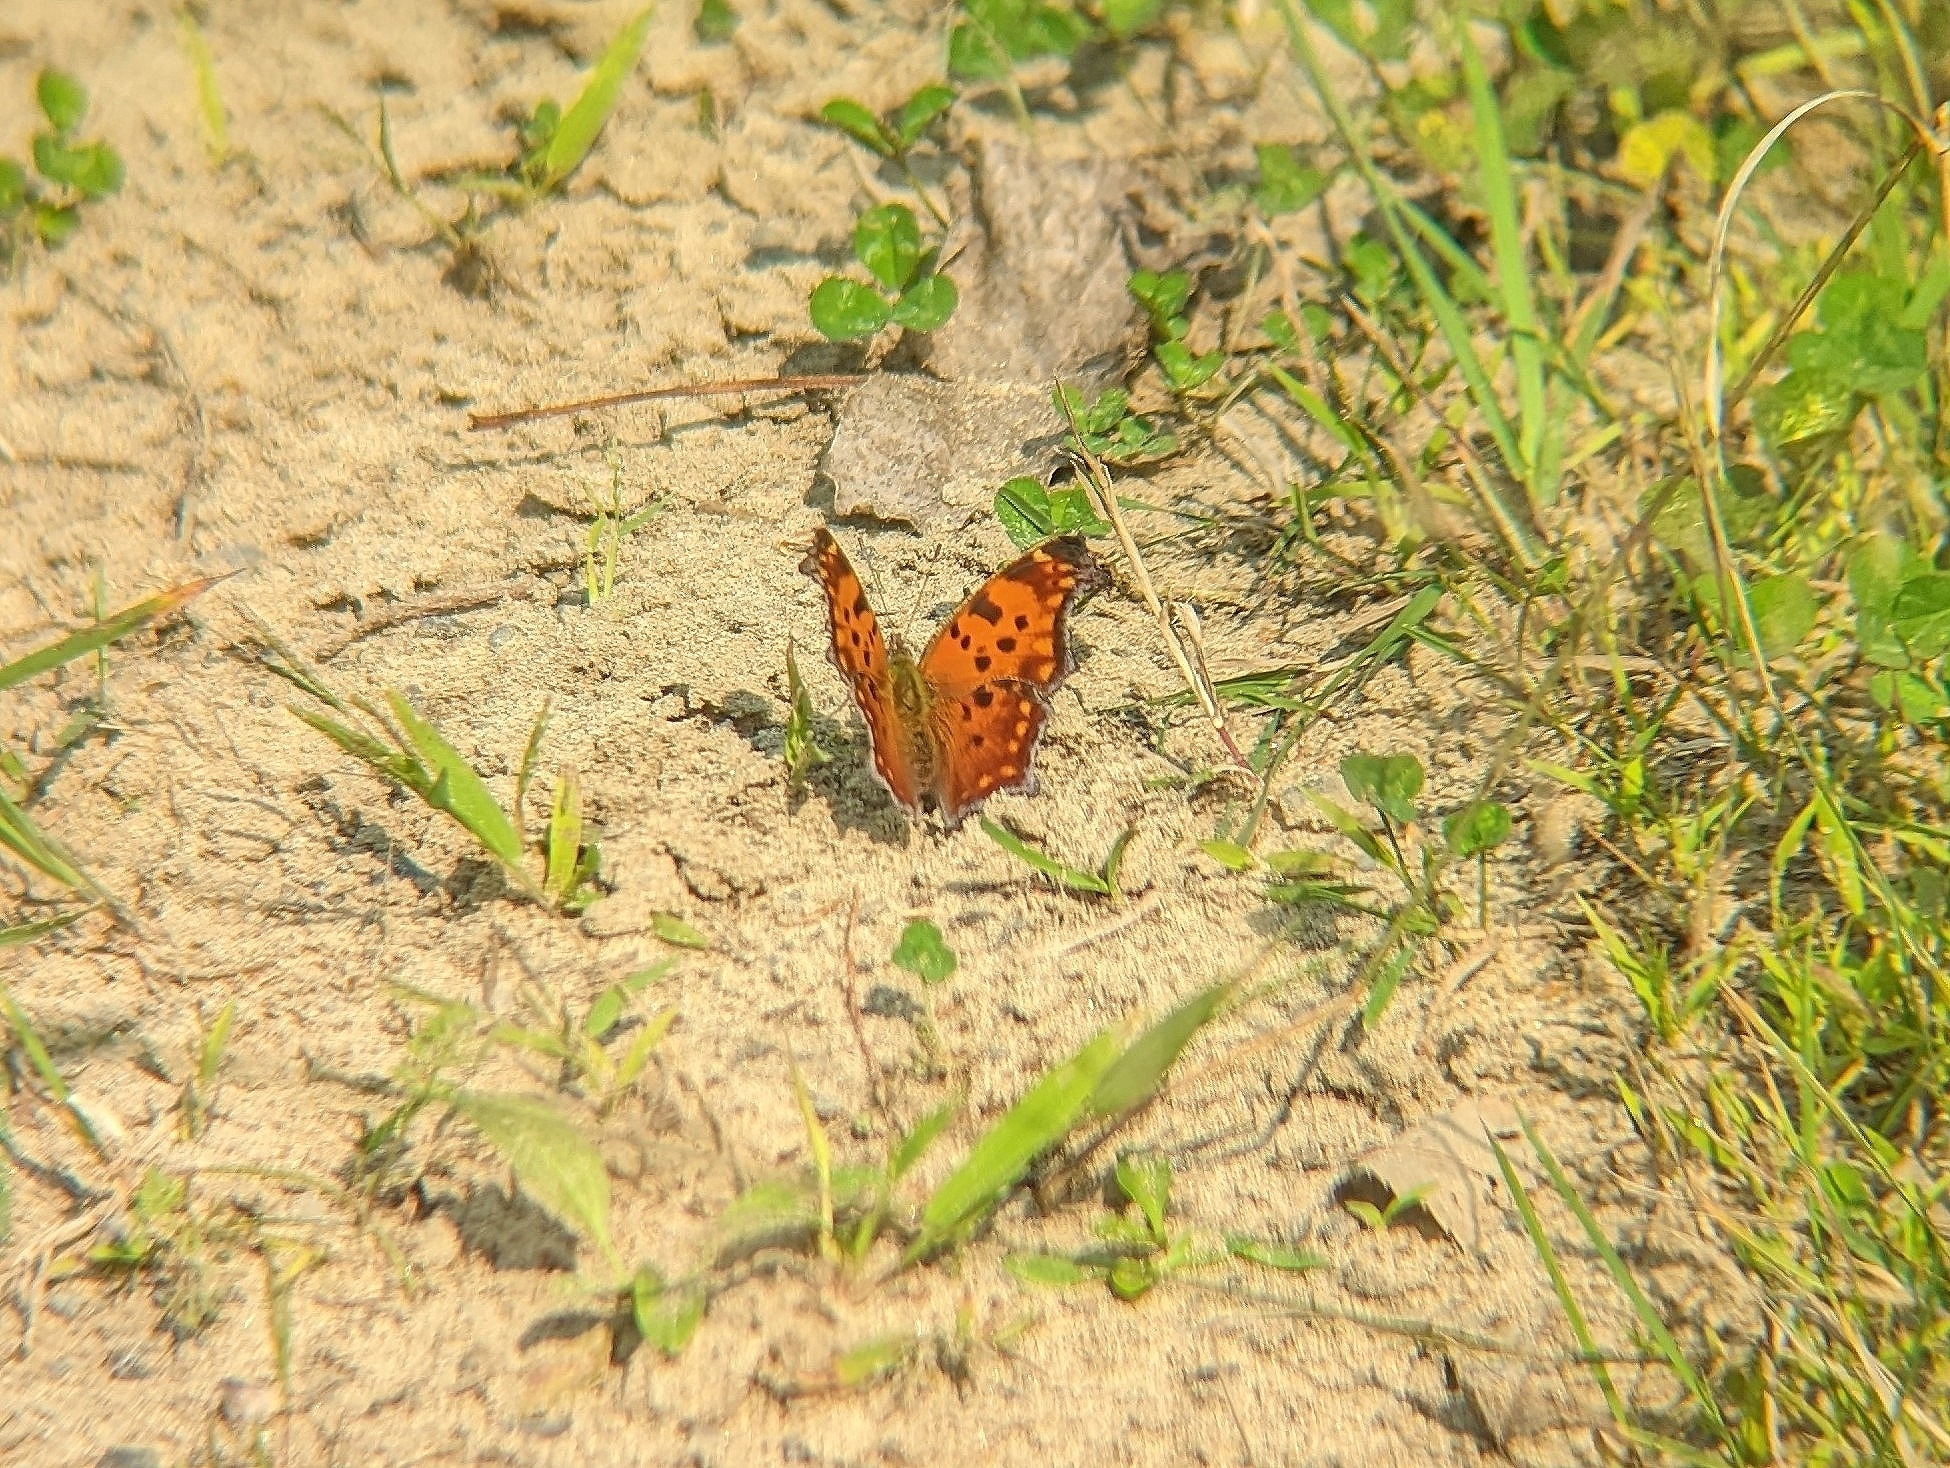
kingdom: Animalia
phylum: Arthropoda
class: Insecta
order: Lepidoptera
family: Nymphalidae
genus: Polygonia
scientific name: Polygonia comma
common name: Eastern comma
